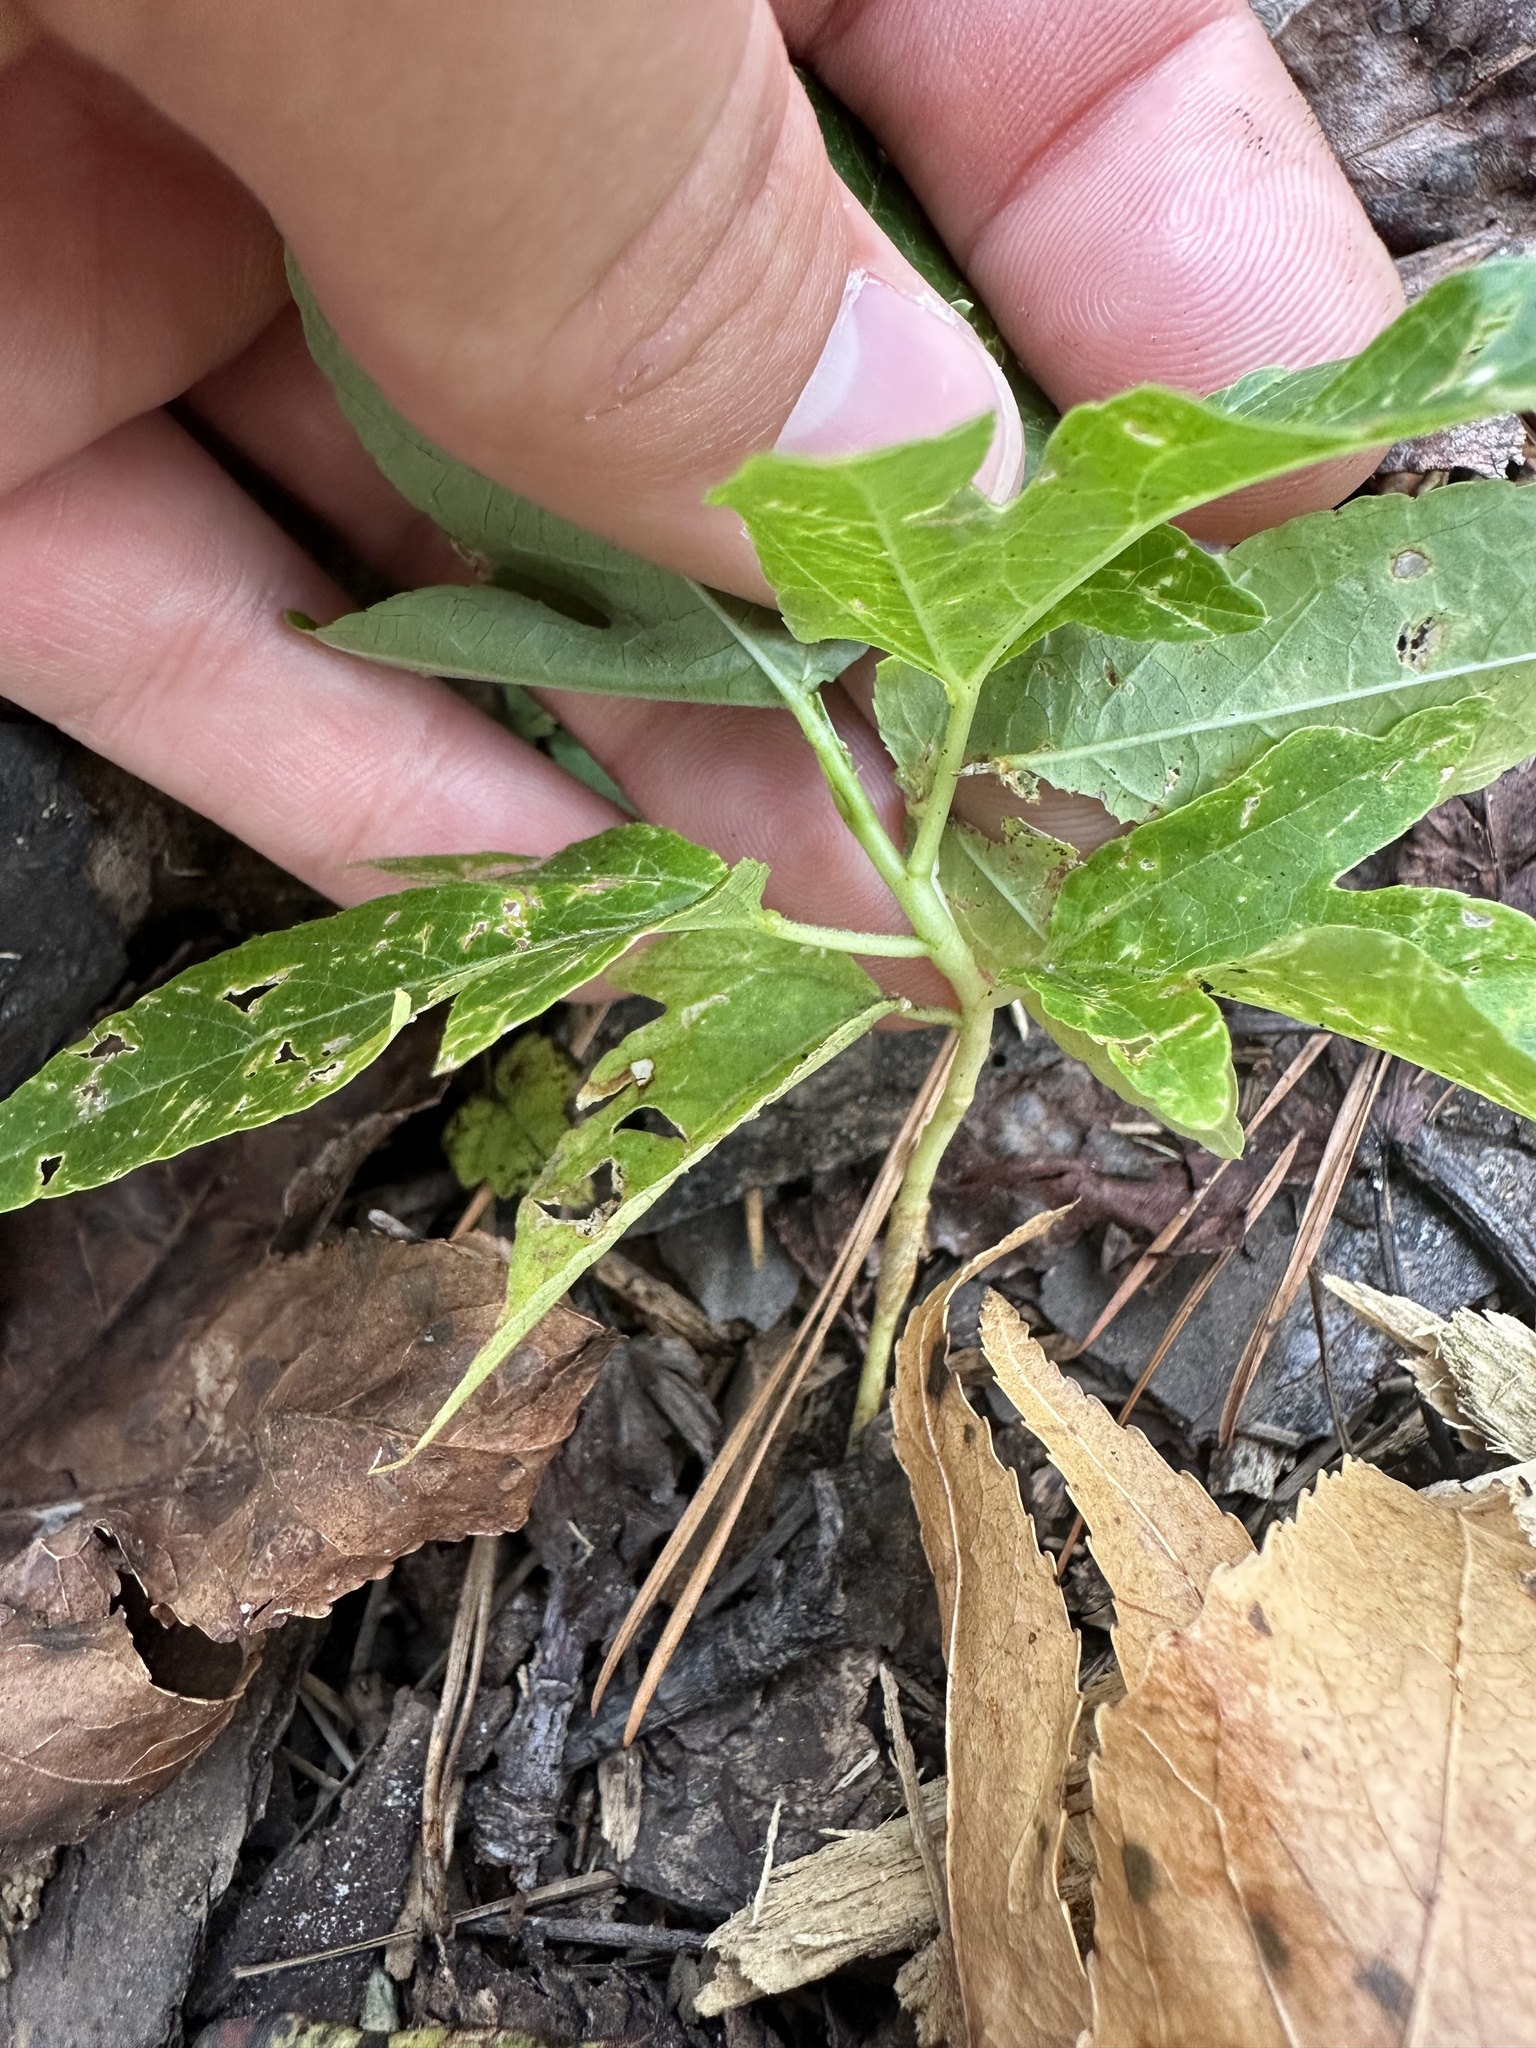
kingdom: Plantae
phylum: Tracheophyta
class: Magnoliopsida
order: Malpighiales
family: Passifloraceae
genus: Passiflora
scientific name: Passiflora incarnata
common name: Apricot-vine
